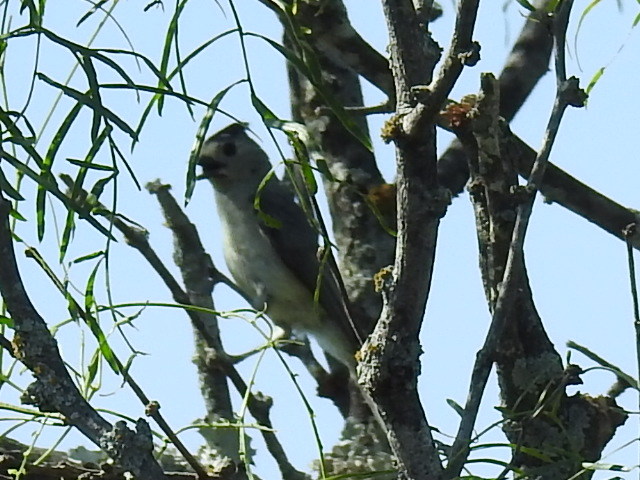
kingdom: Animalia
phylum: Chordata
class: Aves
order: Passeriformes
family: Paridae
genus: Baeolophus
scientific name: Baeolophus atricristatus
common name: Black-crested titmouse
